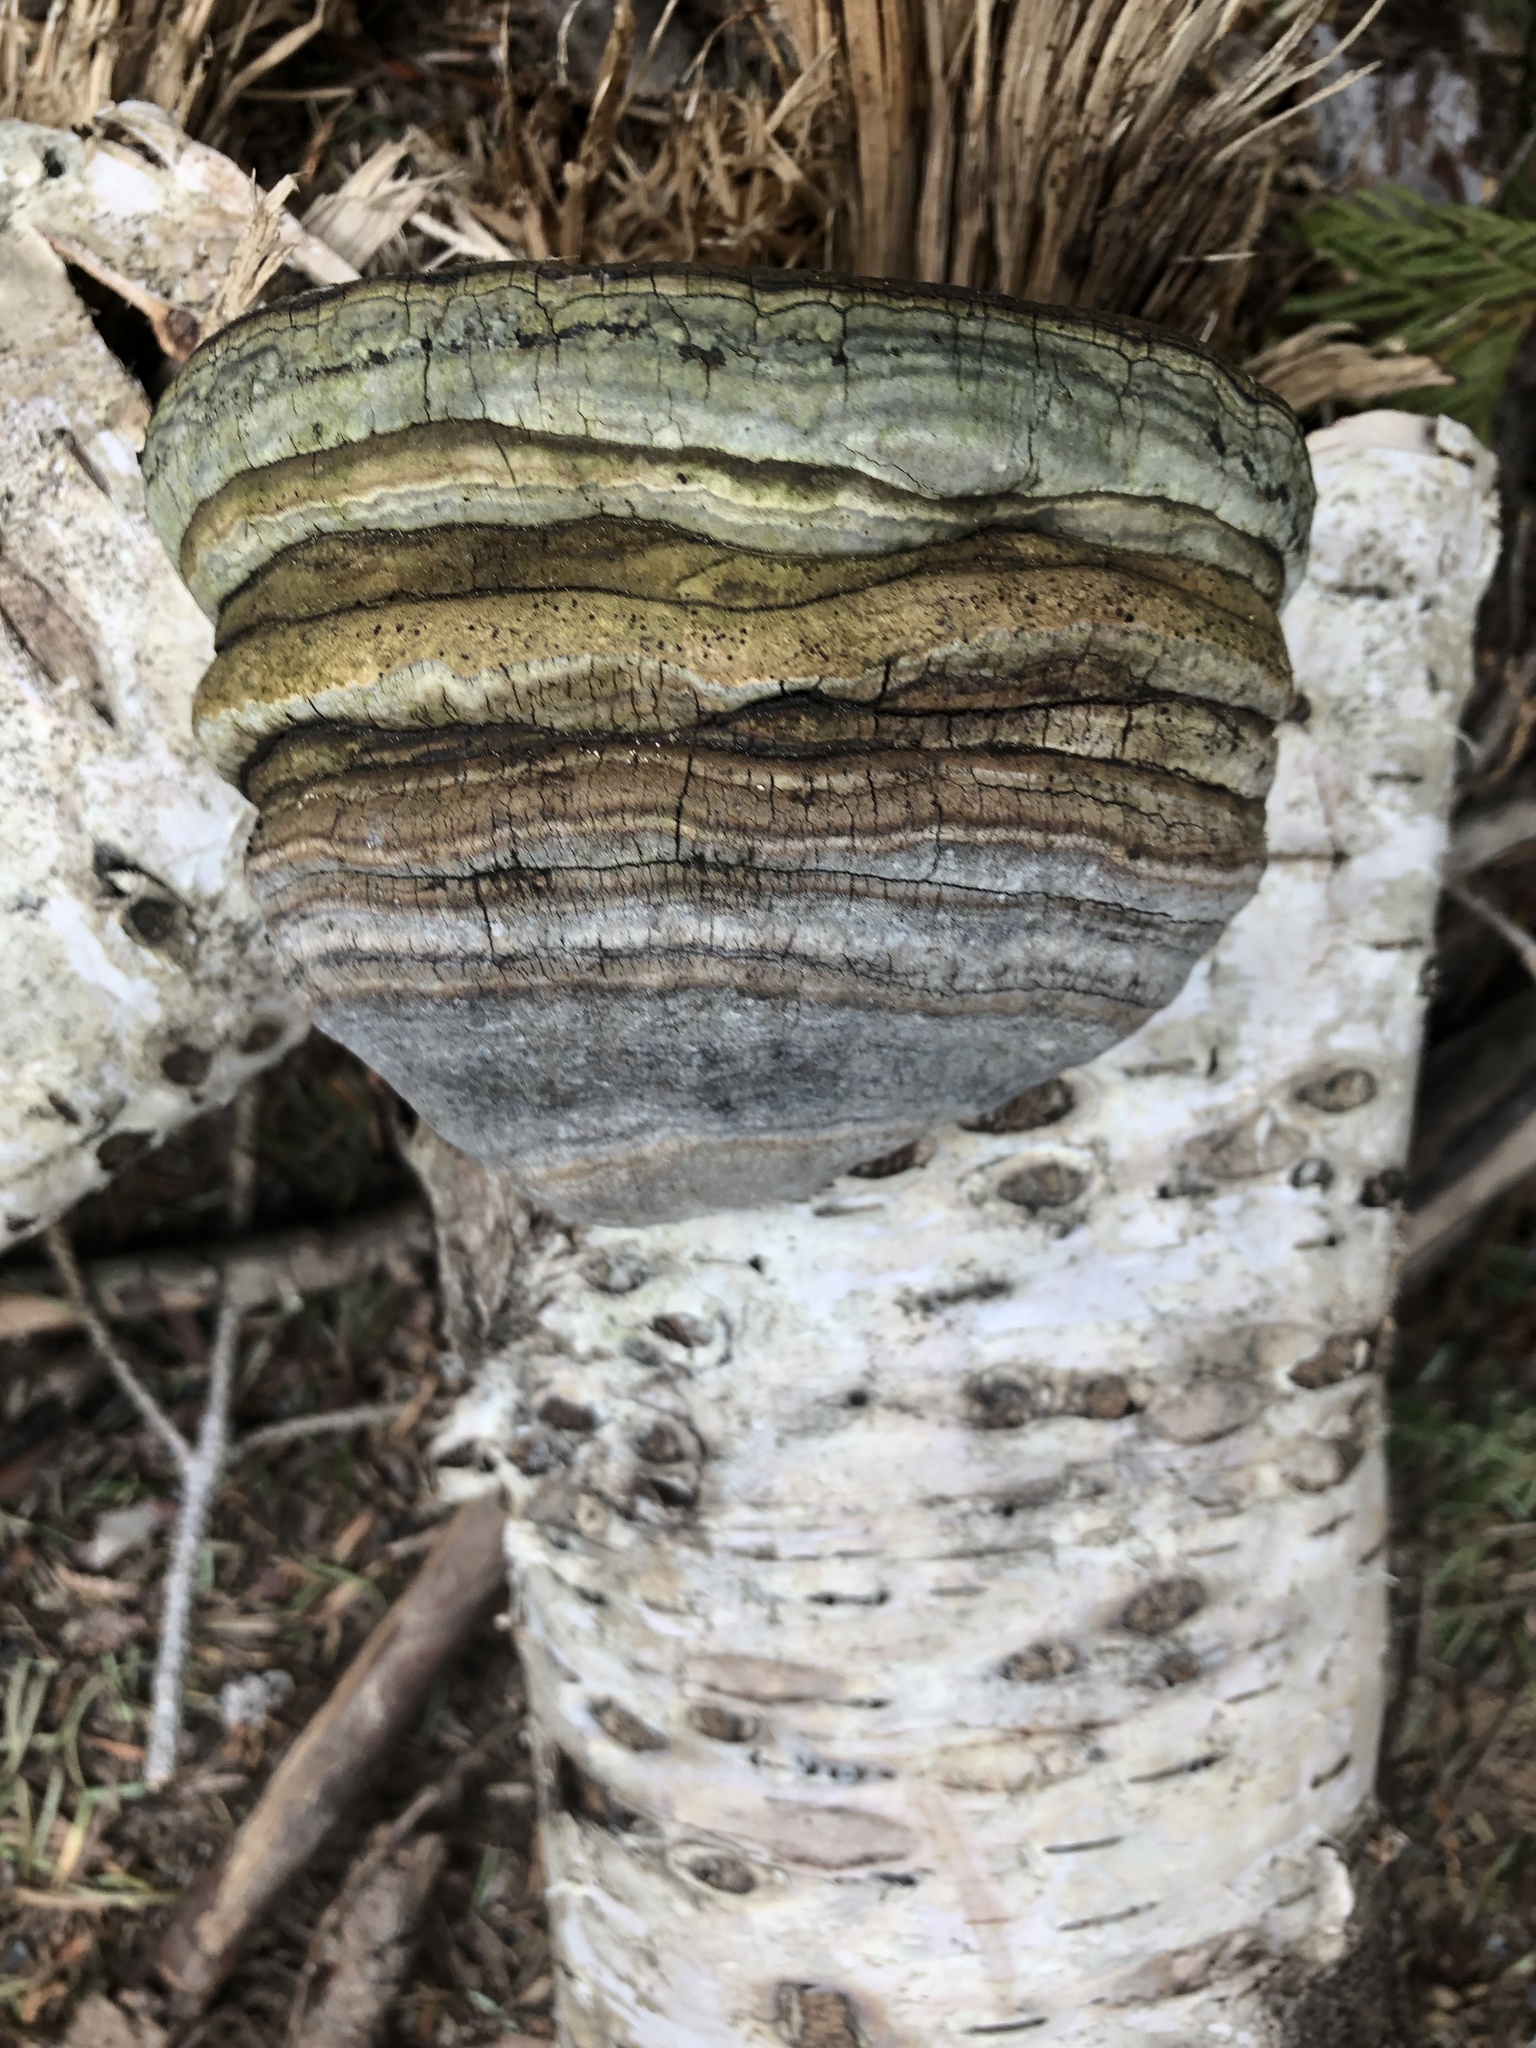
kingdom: Fungi
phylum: Basidiomycota
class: Agaricomycetes
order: Polyporales
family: Polyporaceae
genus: Fomes
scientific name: Fomes fomentarius
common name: Hoof fungus
